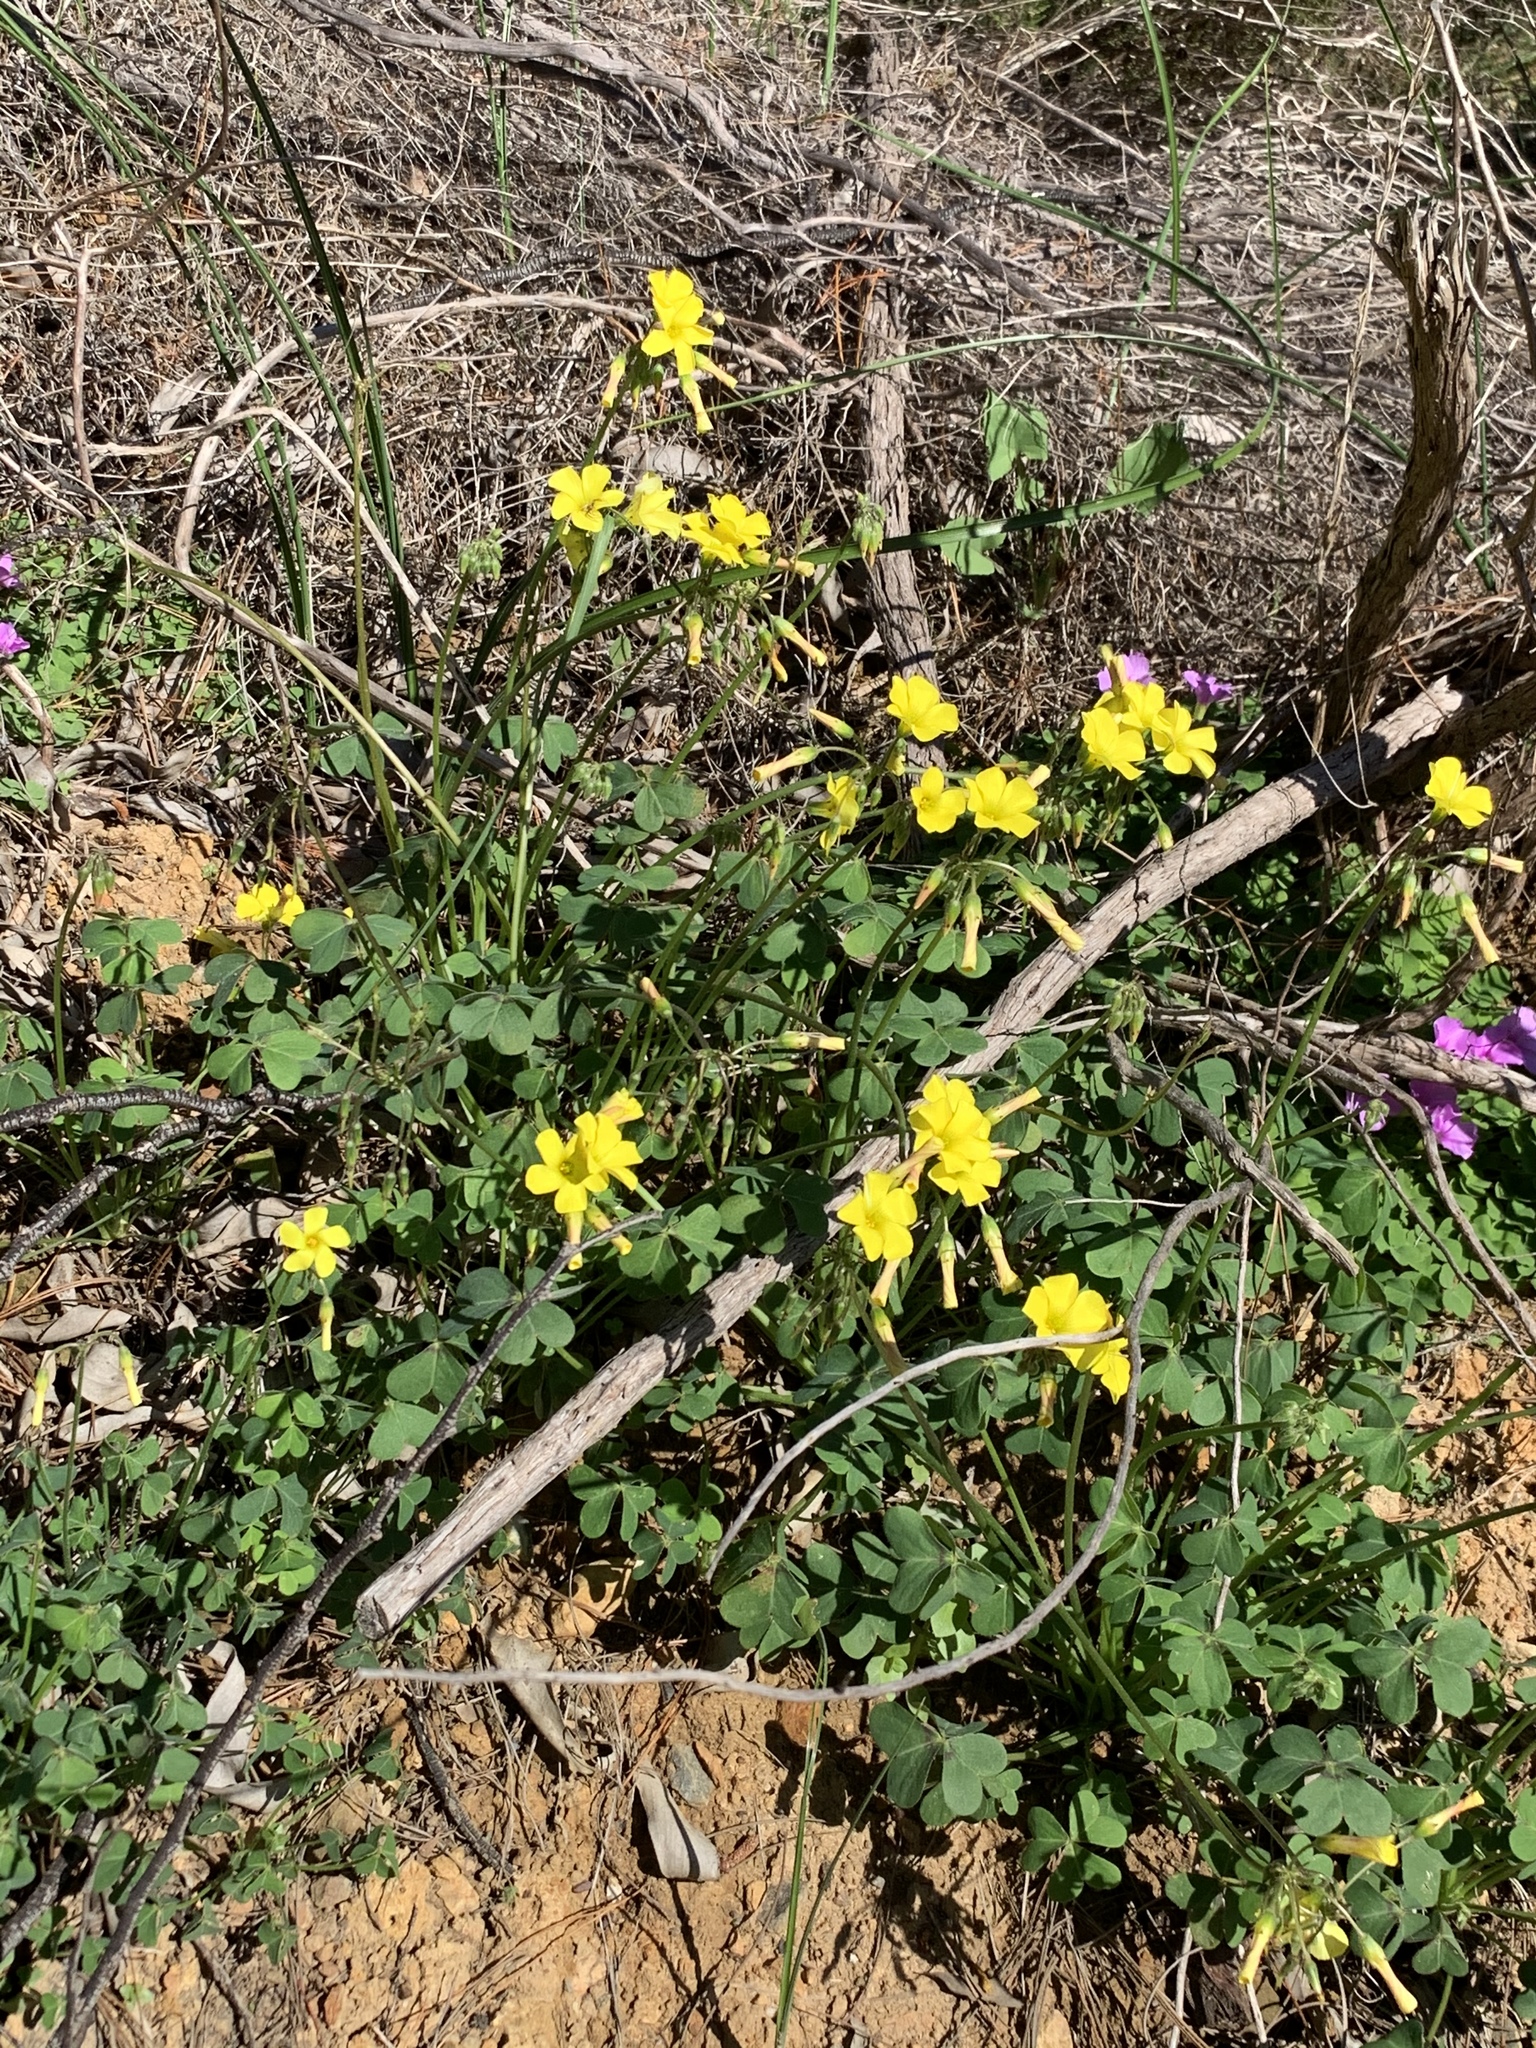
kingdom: Plantae
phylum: Tracheophyta
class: Magnoliopsida
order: Oxalidales
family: Oxalidaceae
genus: Oxalis
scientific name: Oxalis pes-caprae
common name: Bermuda-buttercup
